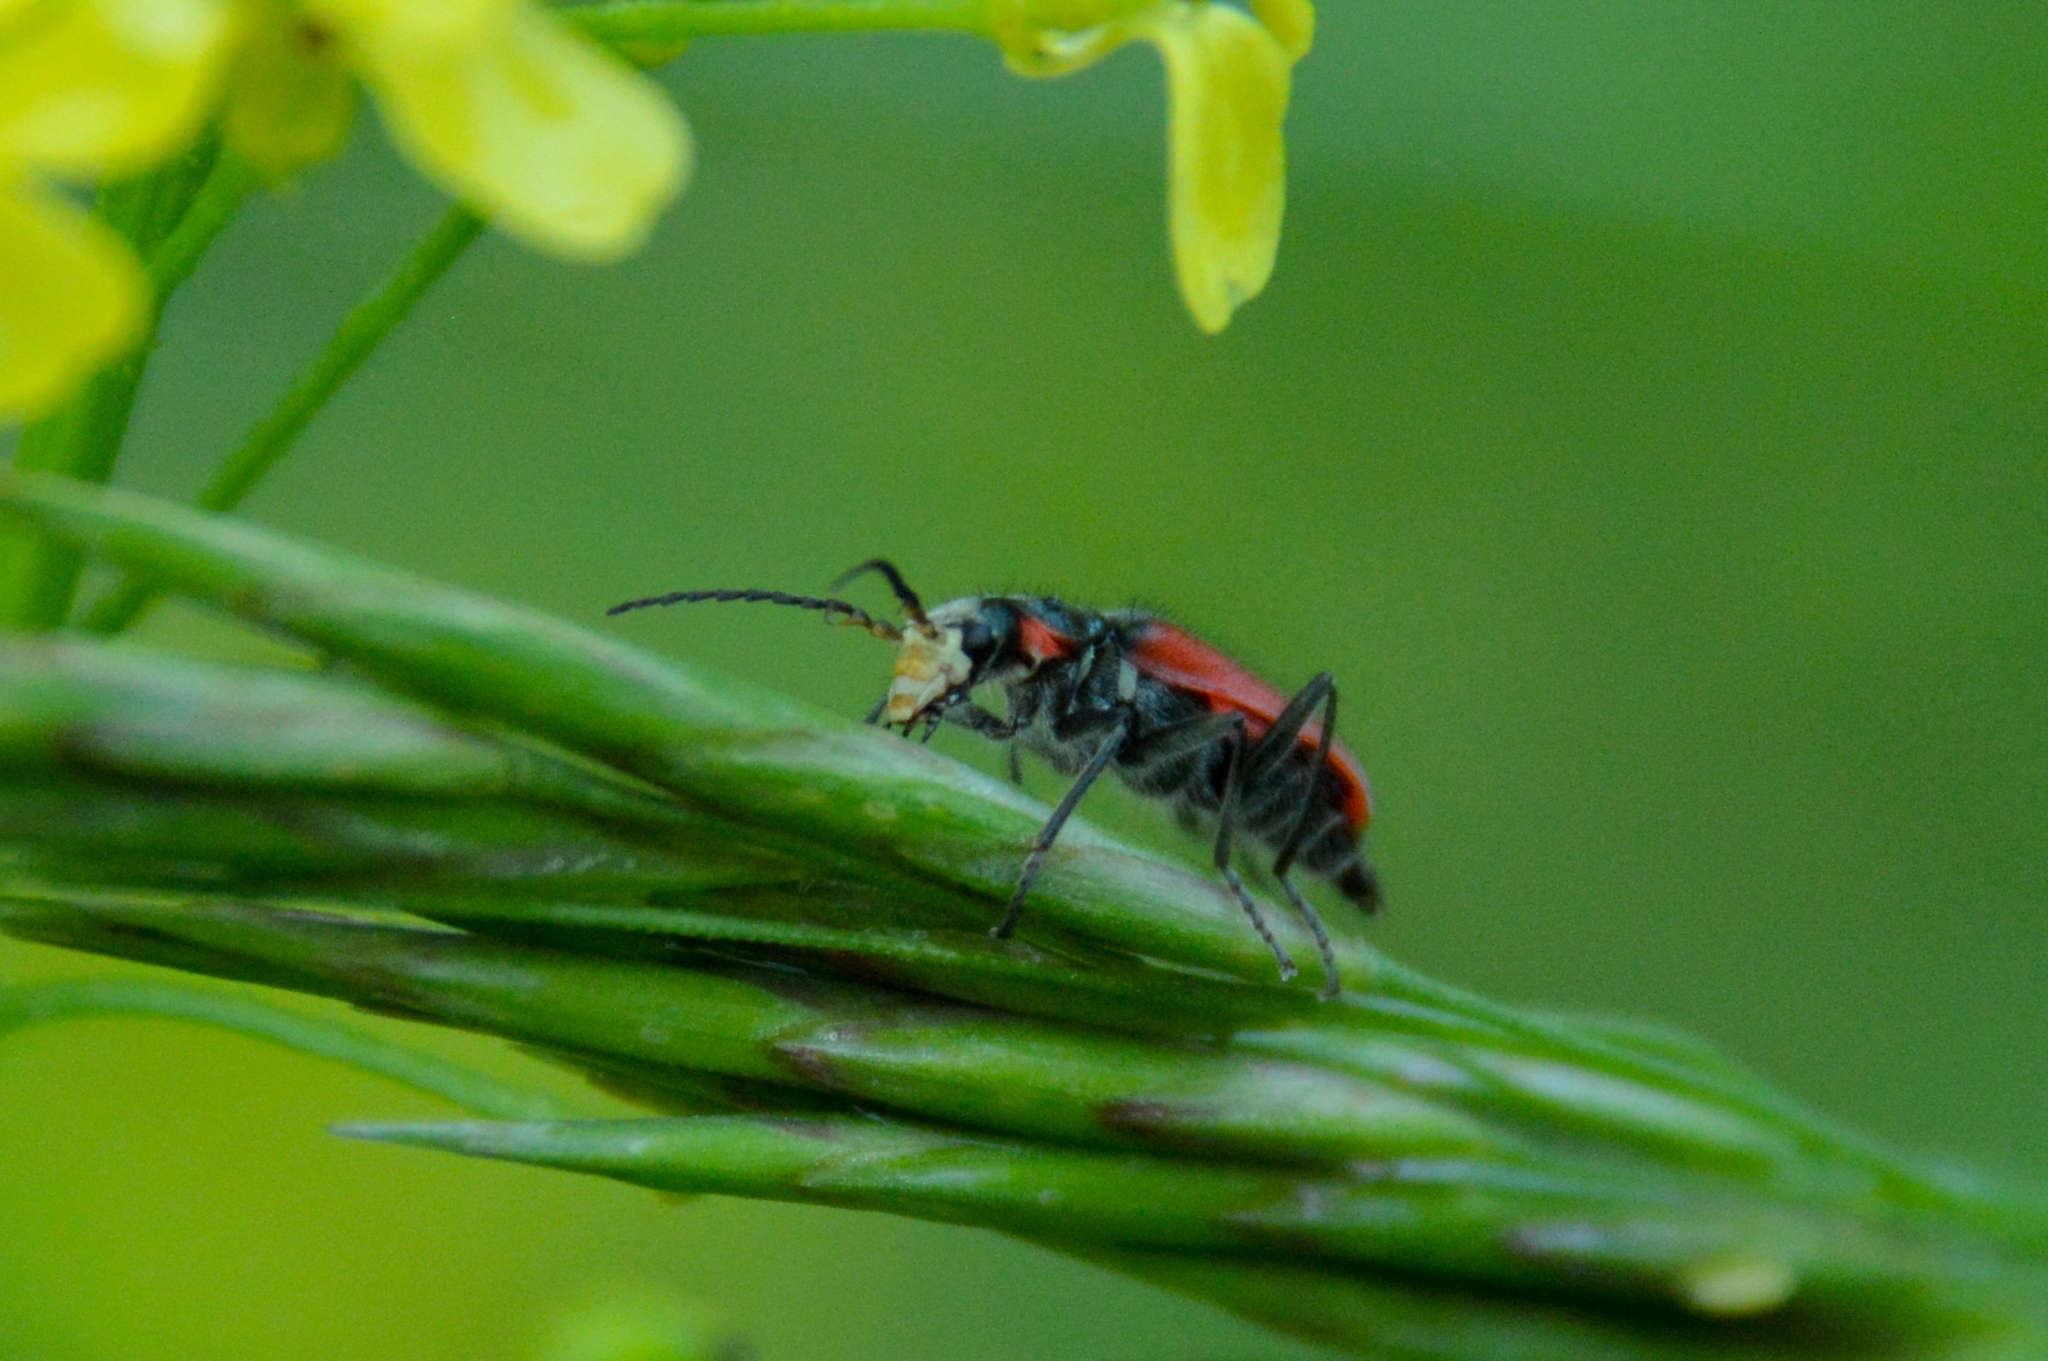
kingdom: Animalia
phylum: Arthropoda
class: Insecta
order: Coleoptera
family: Melyridae
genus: Malachius
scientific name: Malachius aeneus
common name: Scarlet malachite beetle
